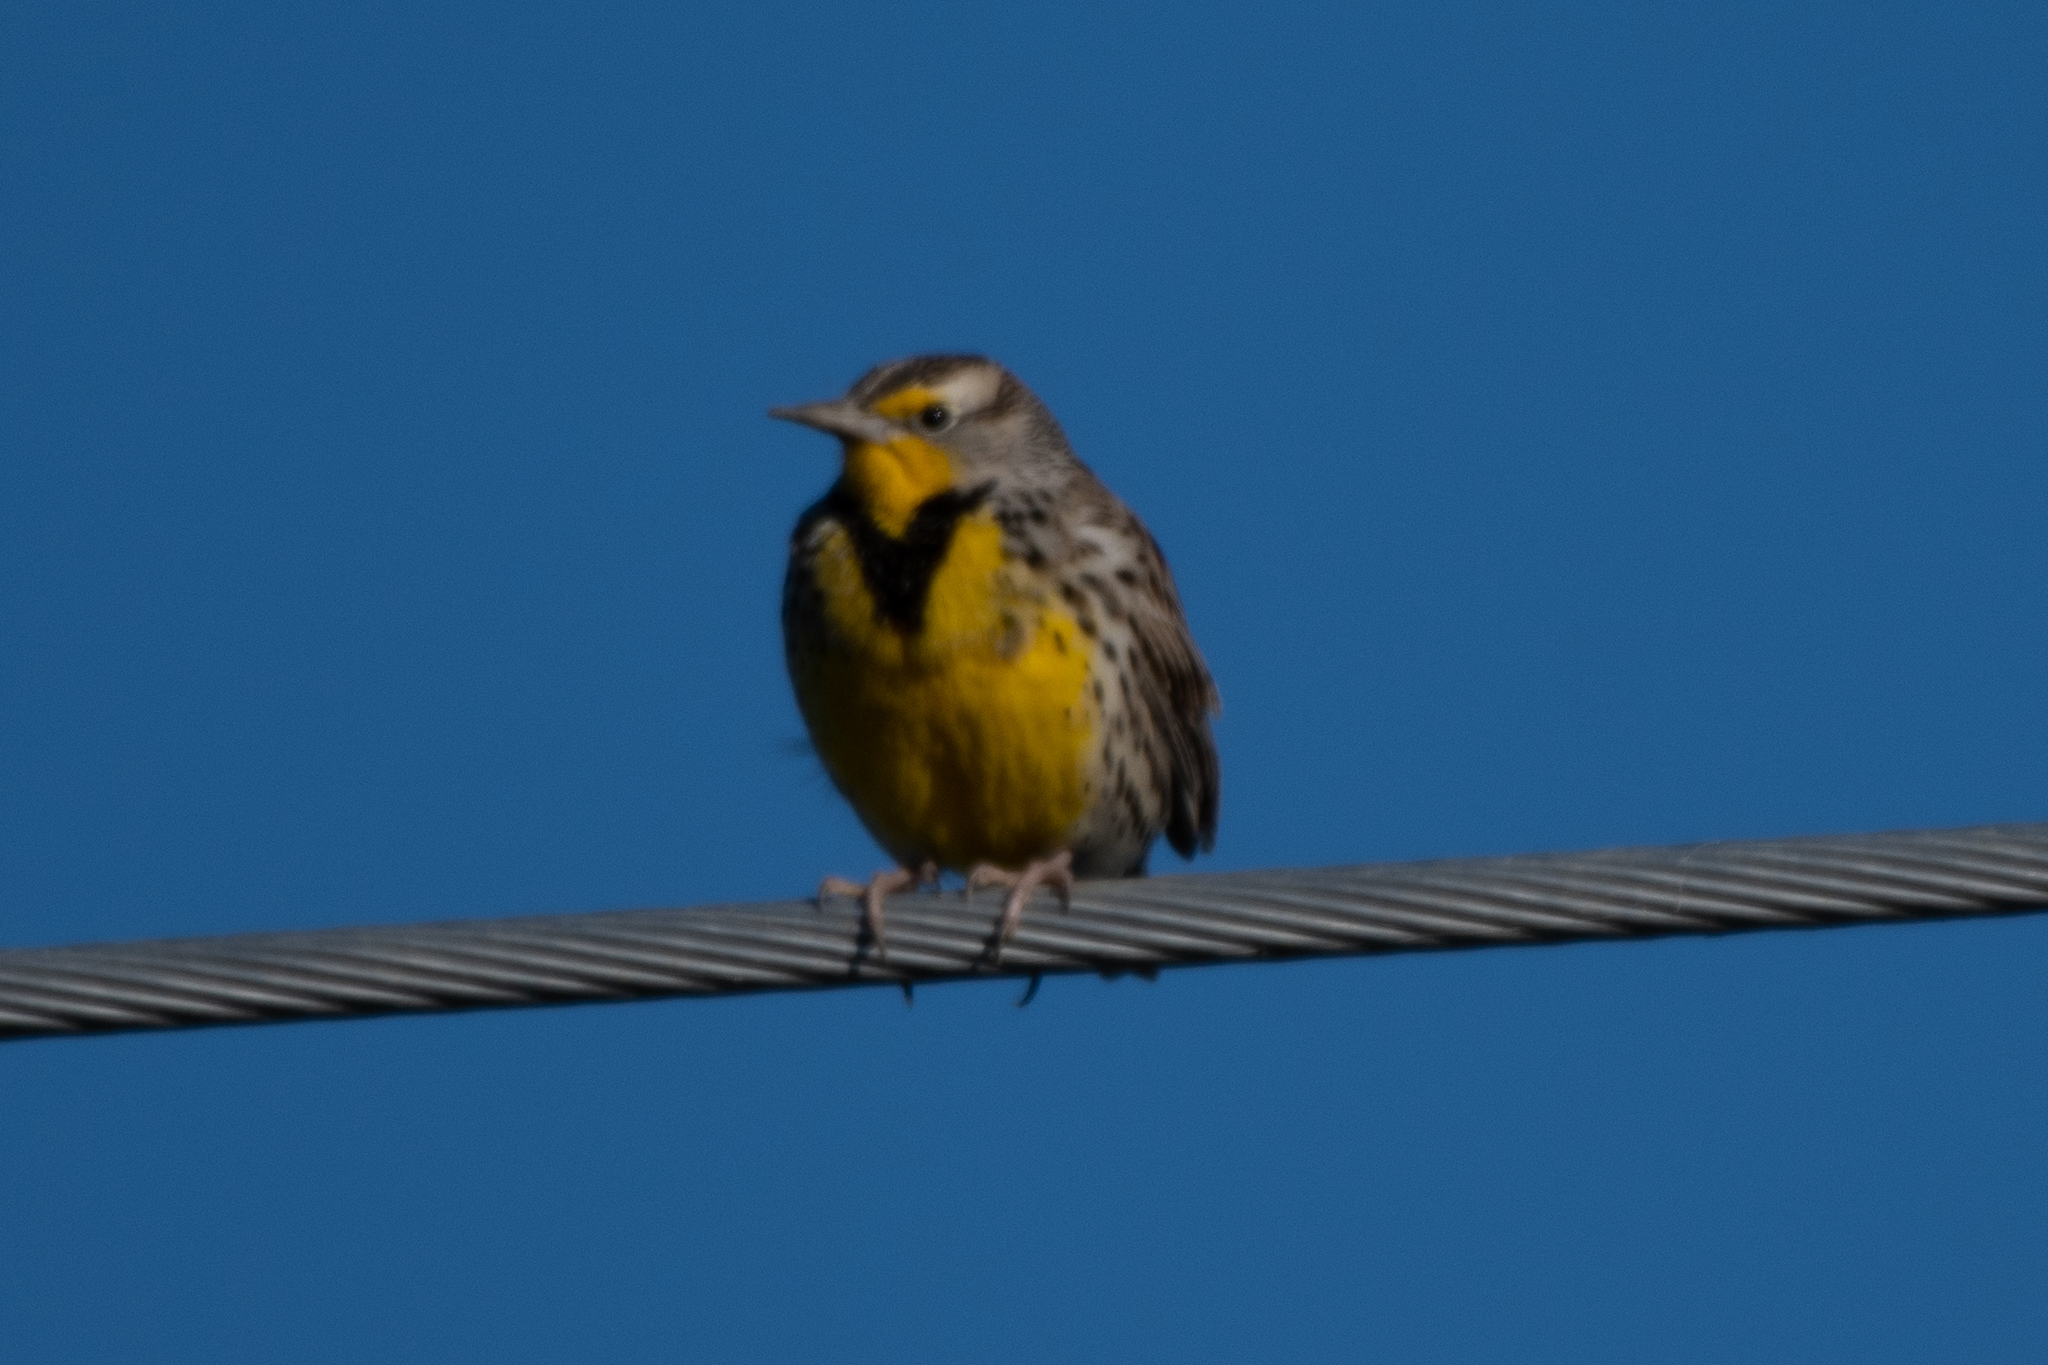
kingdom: Animalia
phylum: Chordata
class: Aves
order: Passeriformes
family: Icteridae
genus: Sturnella
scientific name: Sturnella neglecta
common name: Western meadowlark
